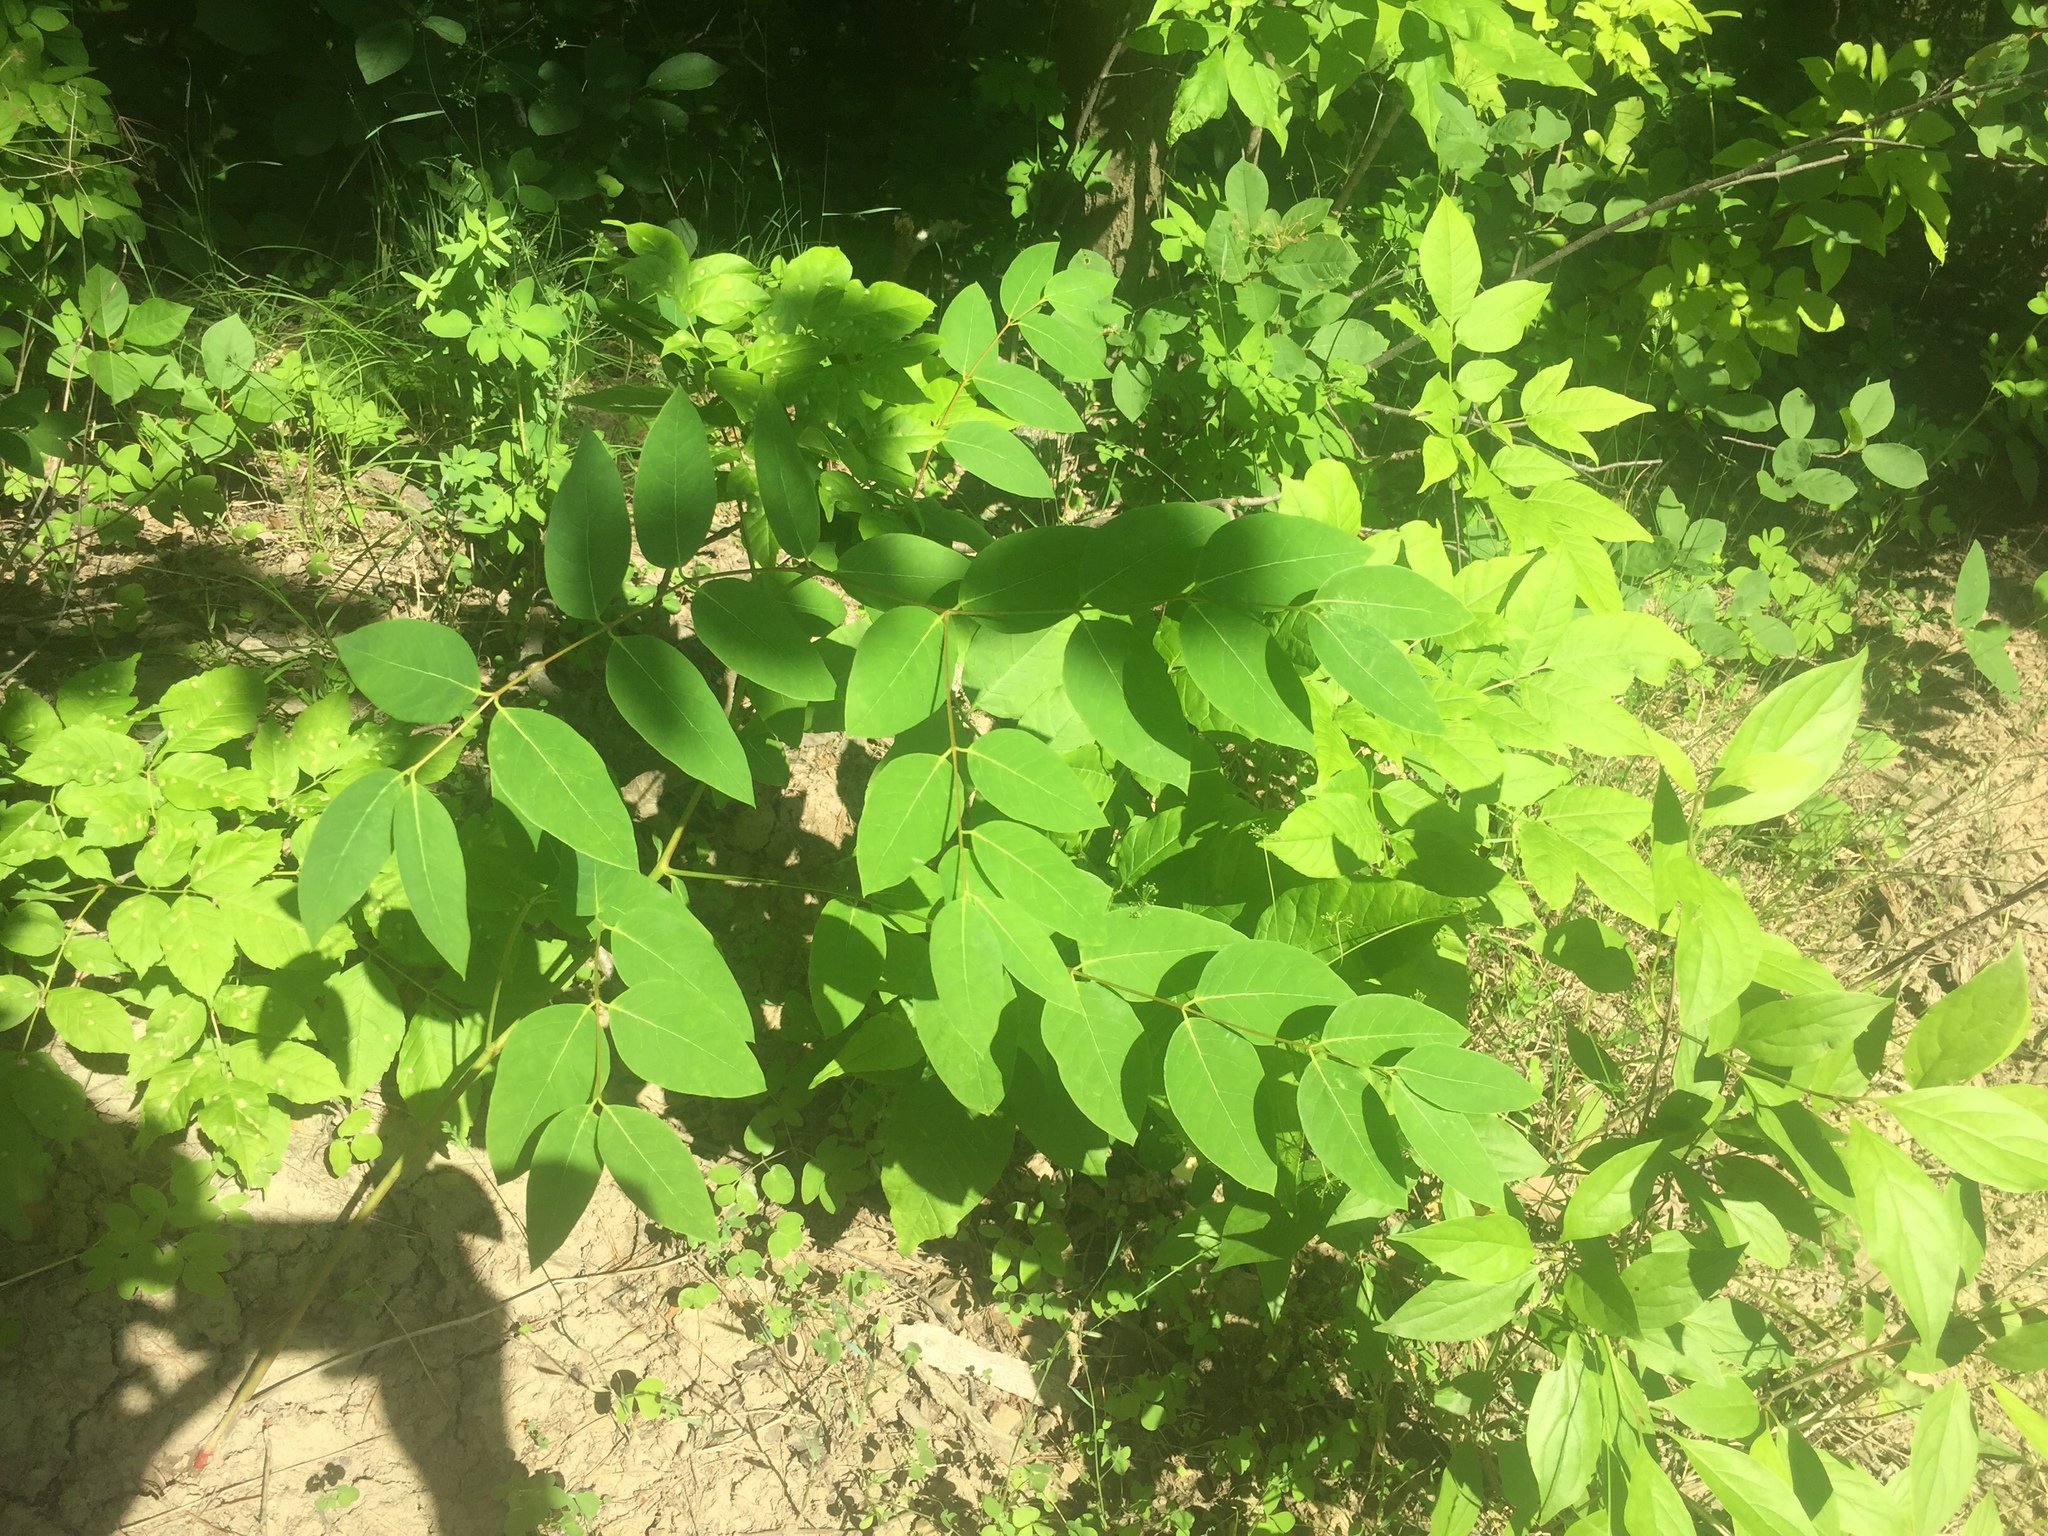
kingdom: Plantae
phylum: Tracheophyta
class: Magnoliopsida
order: Gentianales
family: Apocynaceae
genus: Apocynum
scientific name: Apocynum androsaemifolium
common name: Spreading dogbane
